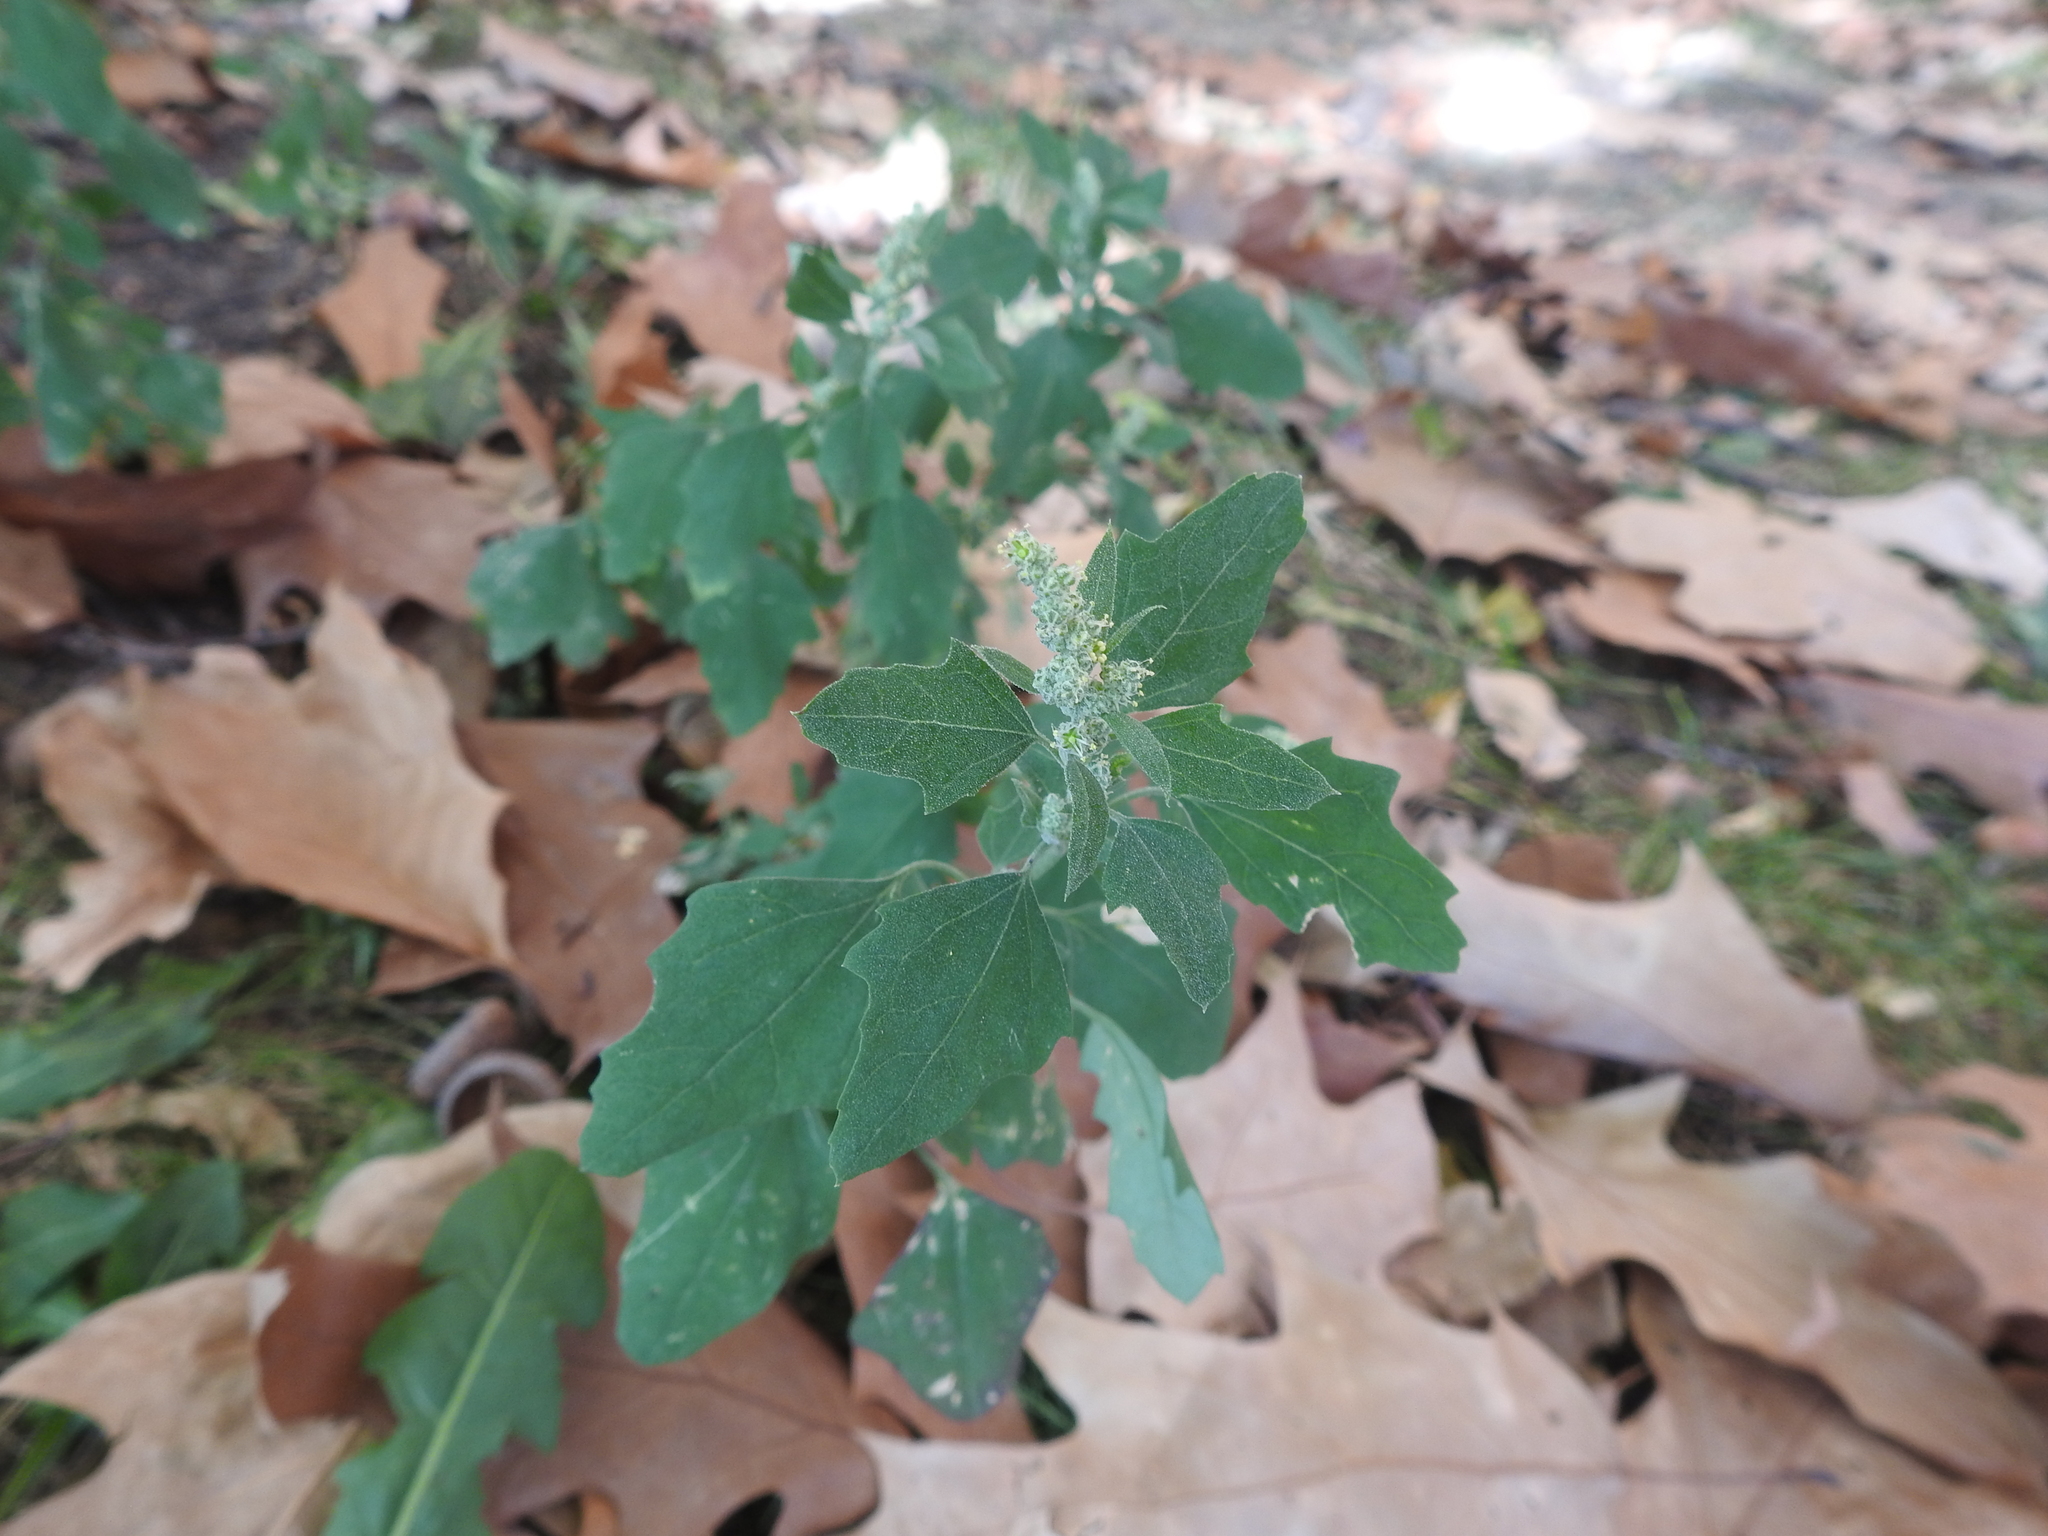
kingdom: Plantae
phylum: Tracheophyta
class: Magnoliopsida
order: Caryophyllales
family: Amaranthaceae
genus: Chenopodium
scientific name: Chenopodium album
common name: Fat-hen
